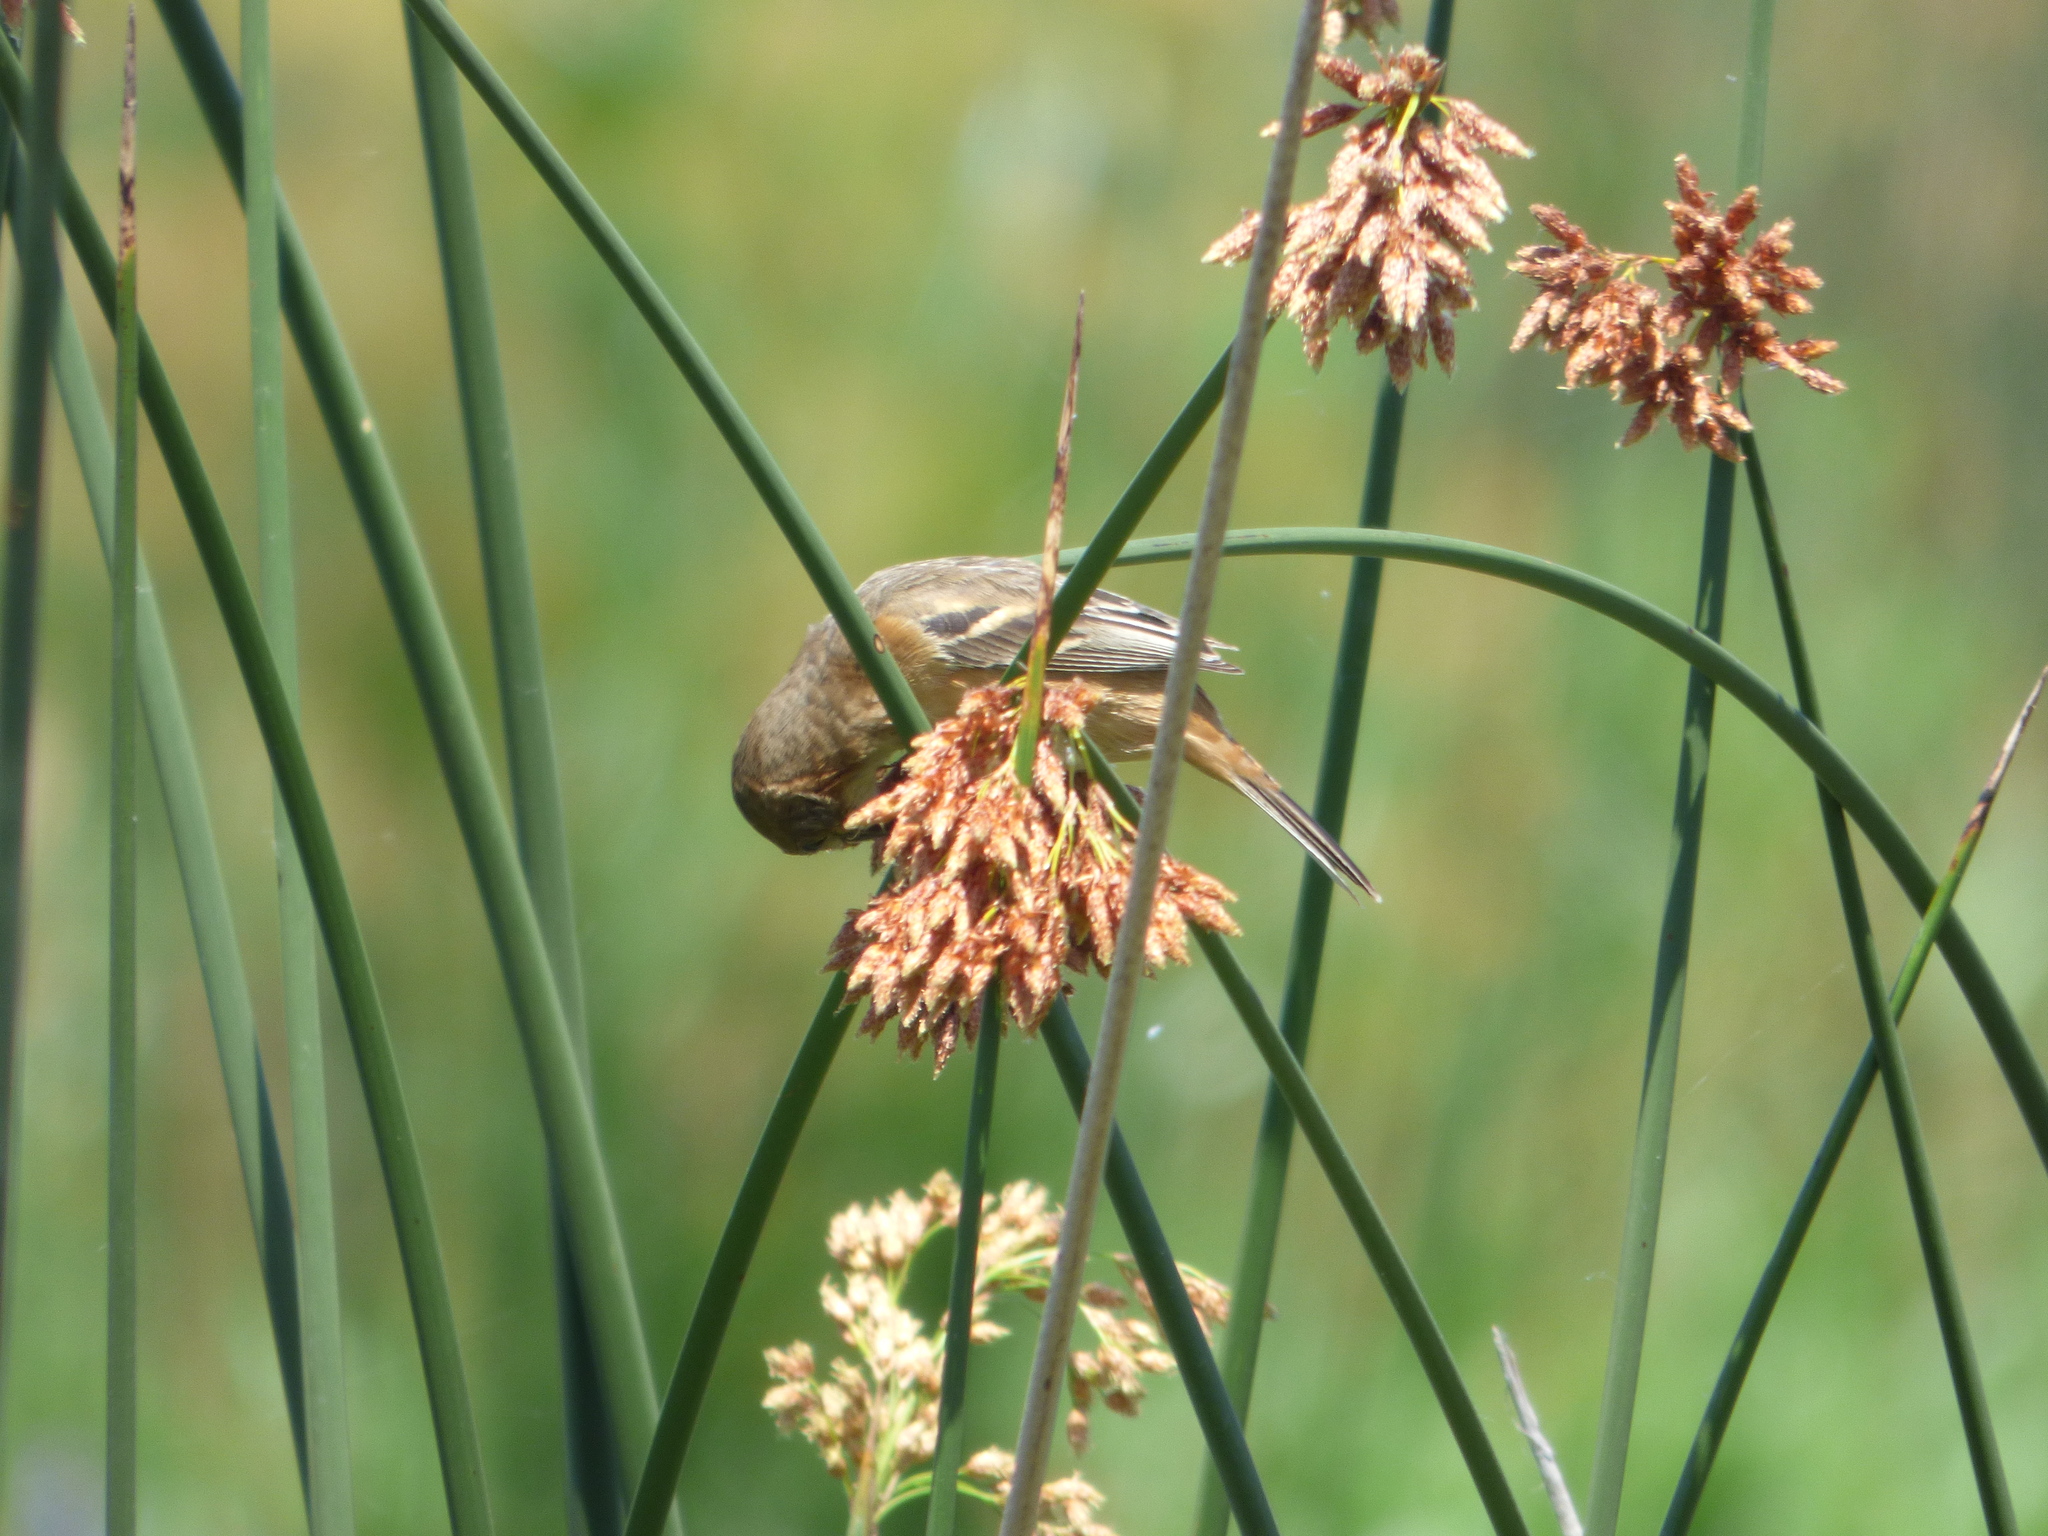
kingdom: Animalia
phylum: Chordata
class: Aves
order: Passeriformes
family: Thraupidae
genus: Sporophila
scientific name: Sporophila collaris
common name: Rusty-collared seedeater
